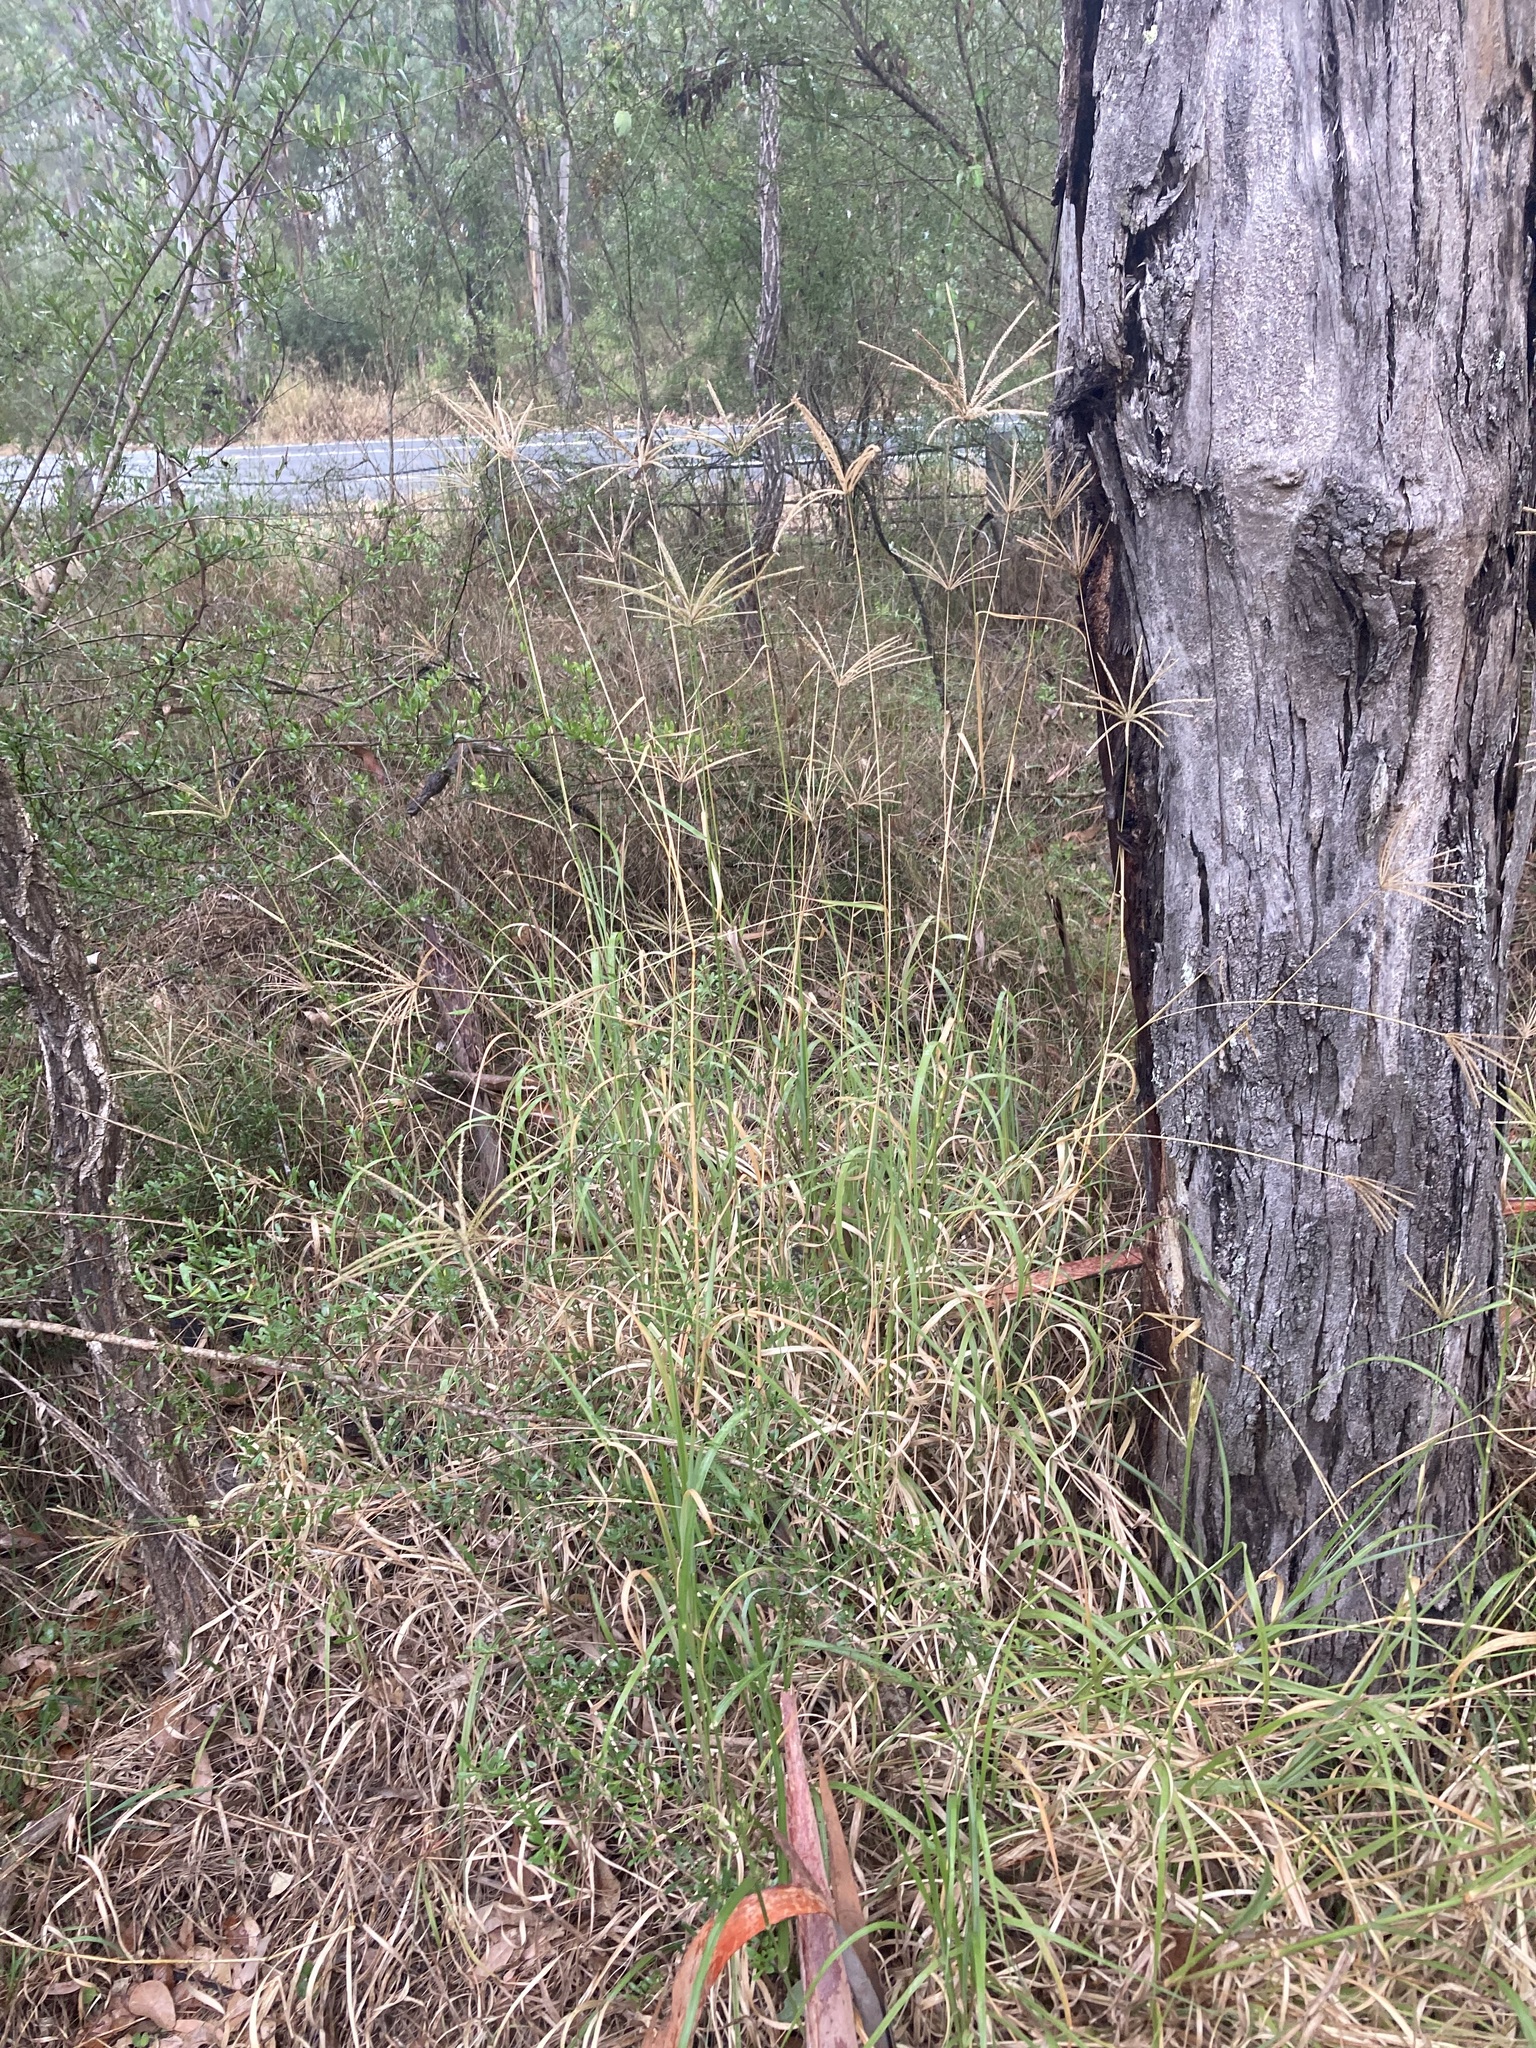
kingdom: Plantae
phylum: Tracheophyta
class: Liliopsida
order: Poales
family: Poaceae
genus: Chloris
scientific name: Chloris gayana
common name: Rhodes grass
